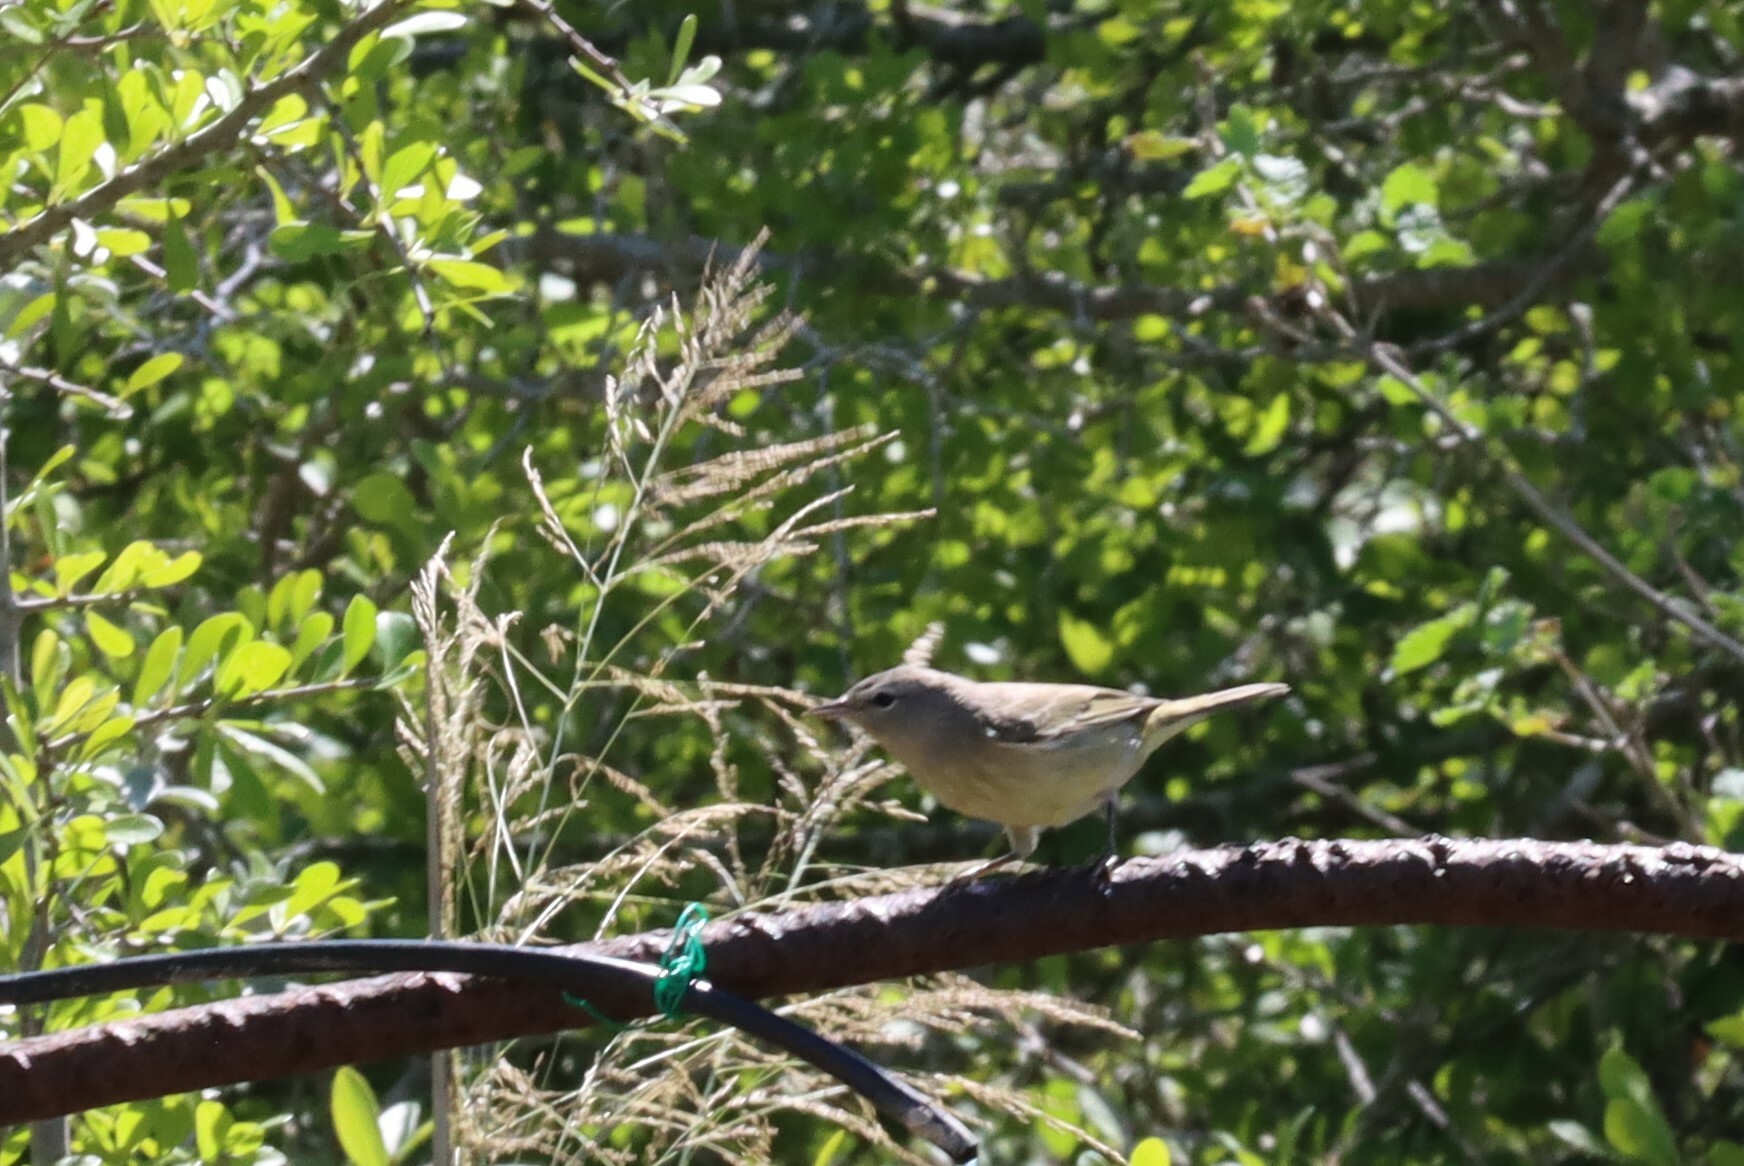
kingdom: Animalia
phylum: Chordata
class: Aves
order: Passeriformes
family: Parulidae
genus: Leiothlypis
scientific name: Leiothlypis celata
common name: Orange-crowned warbler
